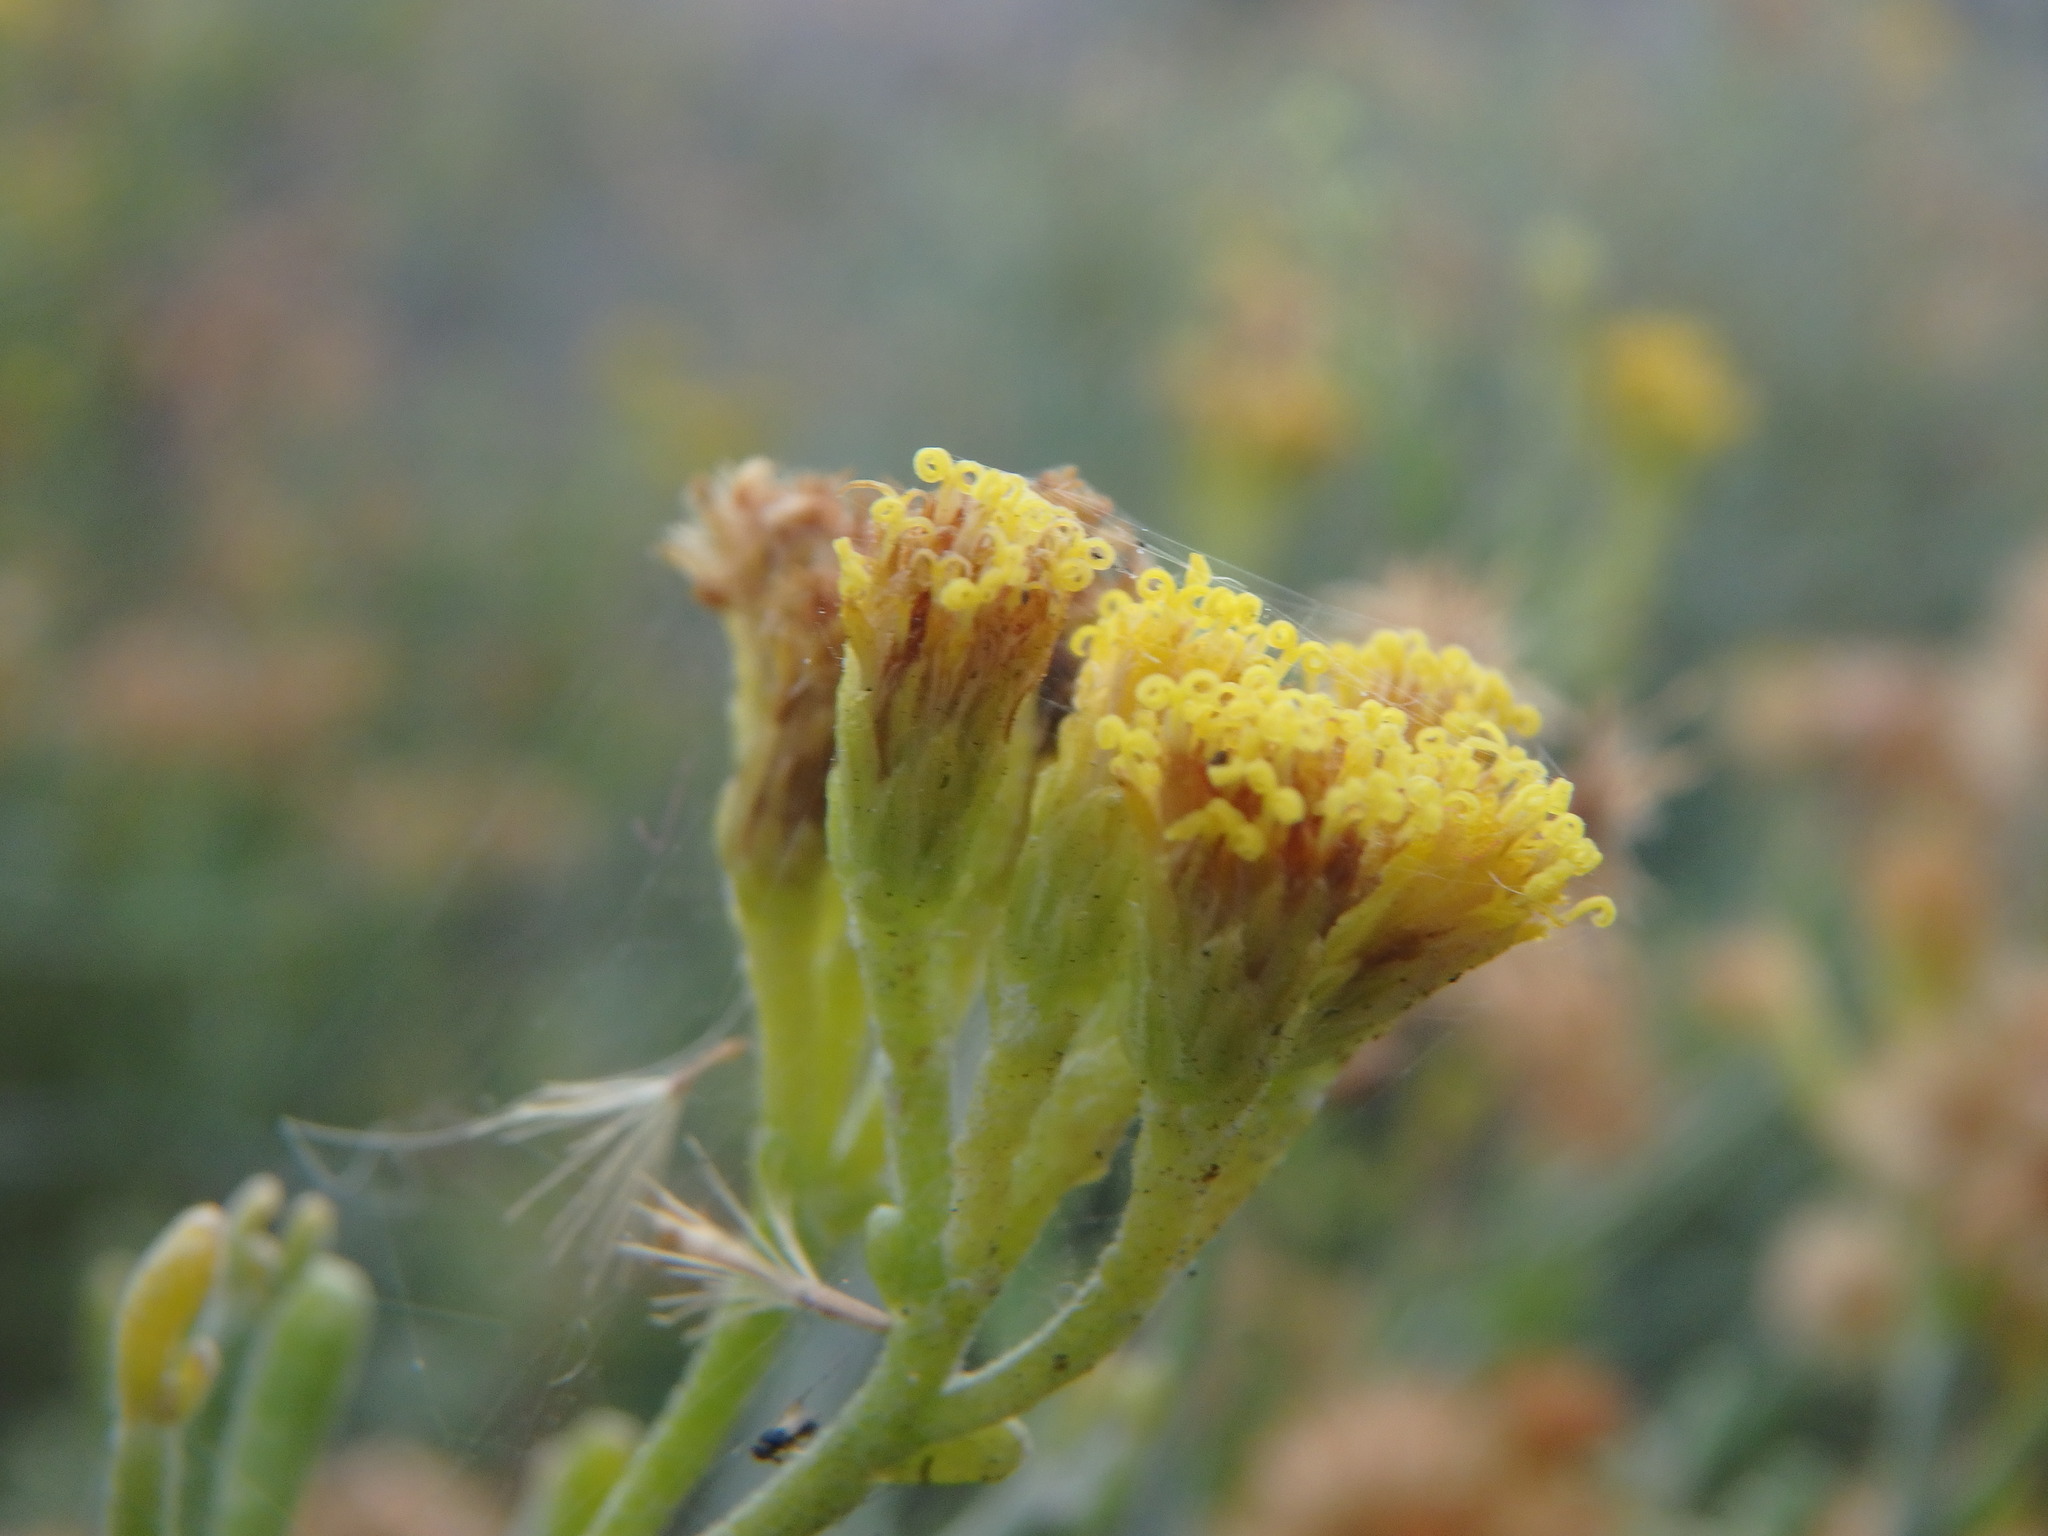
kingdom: Plantae
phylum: Tracheophyta
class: Magnoliopsida
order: Asterales
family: Asteraceae
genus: Schizogyne
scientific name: Schizogyne sericea
